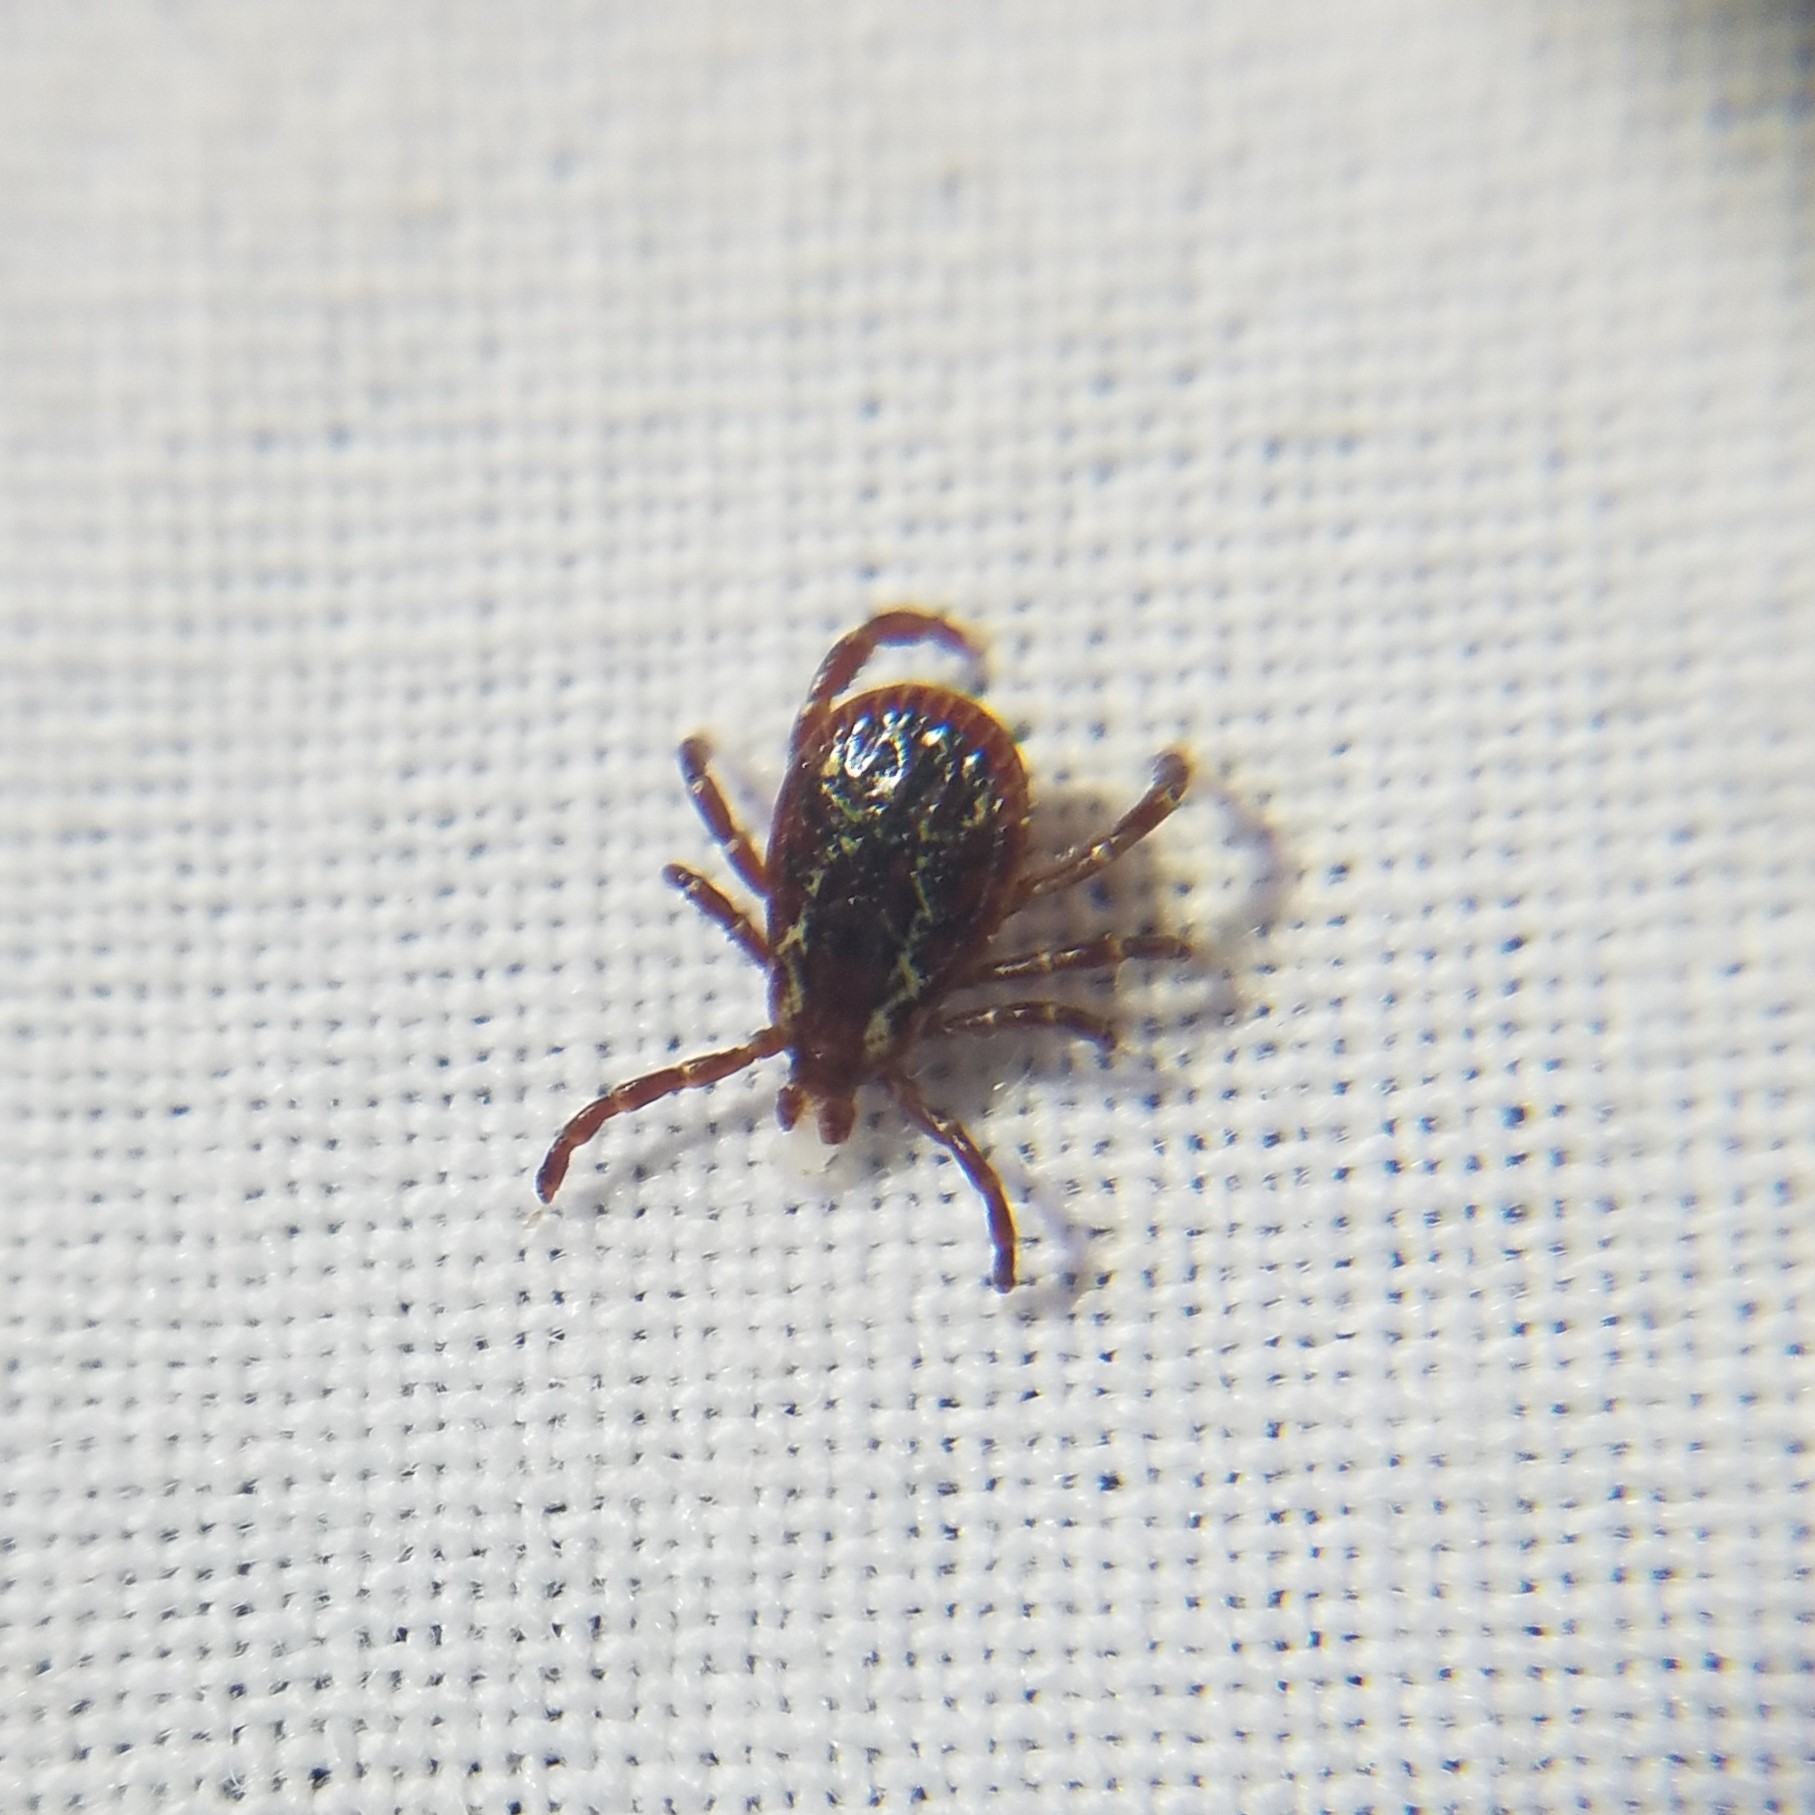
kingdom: Animalia
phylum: Arthropoda
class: Arachnida
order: Ixodida
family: Ixodidae
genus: Dermacentor
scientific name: Dermacentor variabilis
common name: American dog tick
